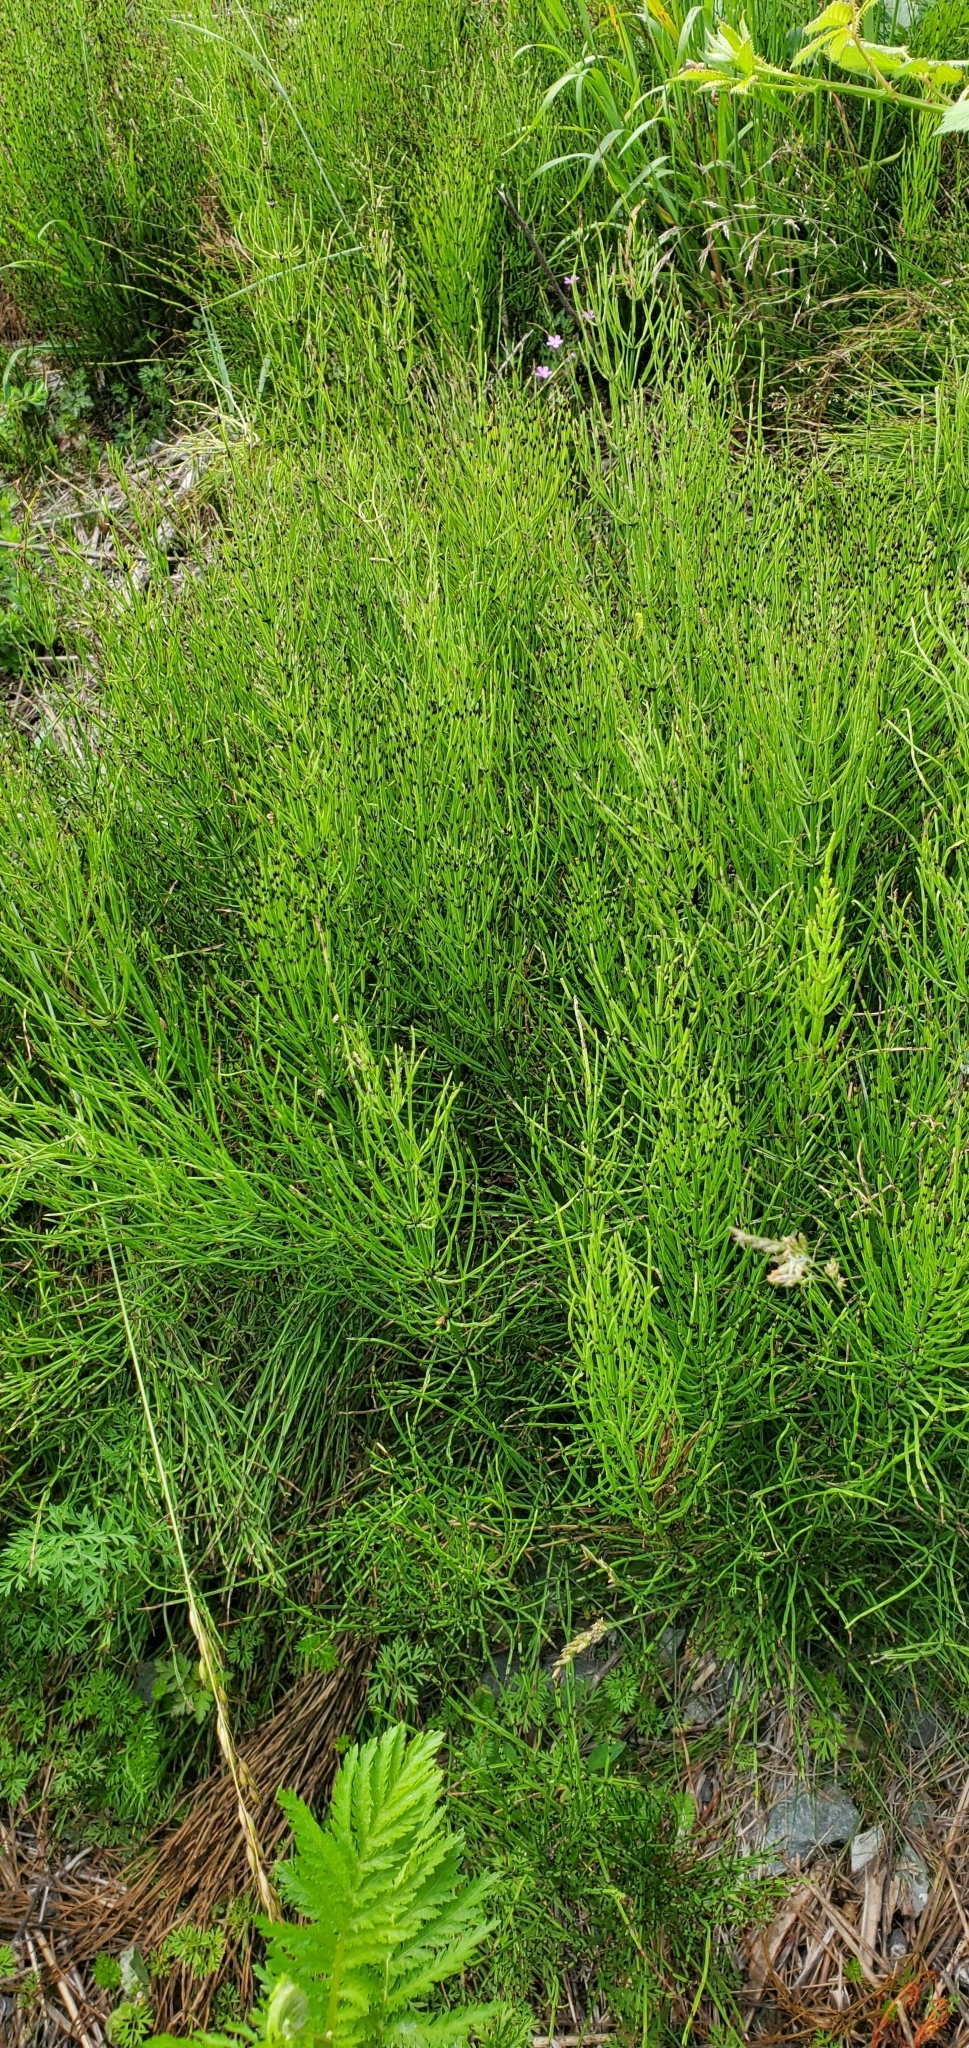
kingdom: Plantae
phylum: Tracheophyta
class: Polypodiopsida
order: Equisetales
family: Equisetaceae
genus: Equisetum
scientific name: Equisetum arvense
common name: Field horsetail
